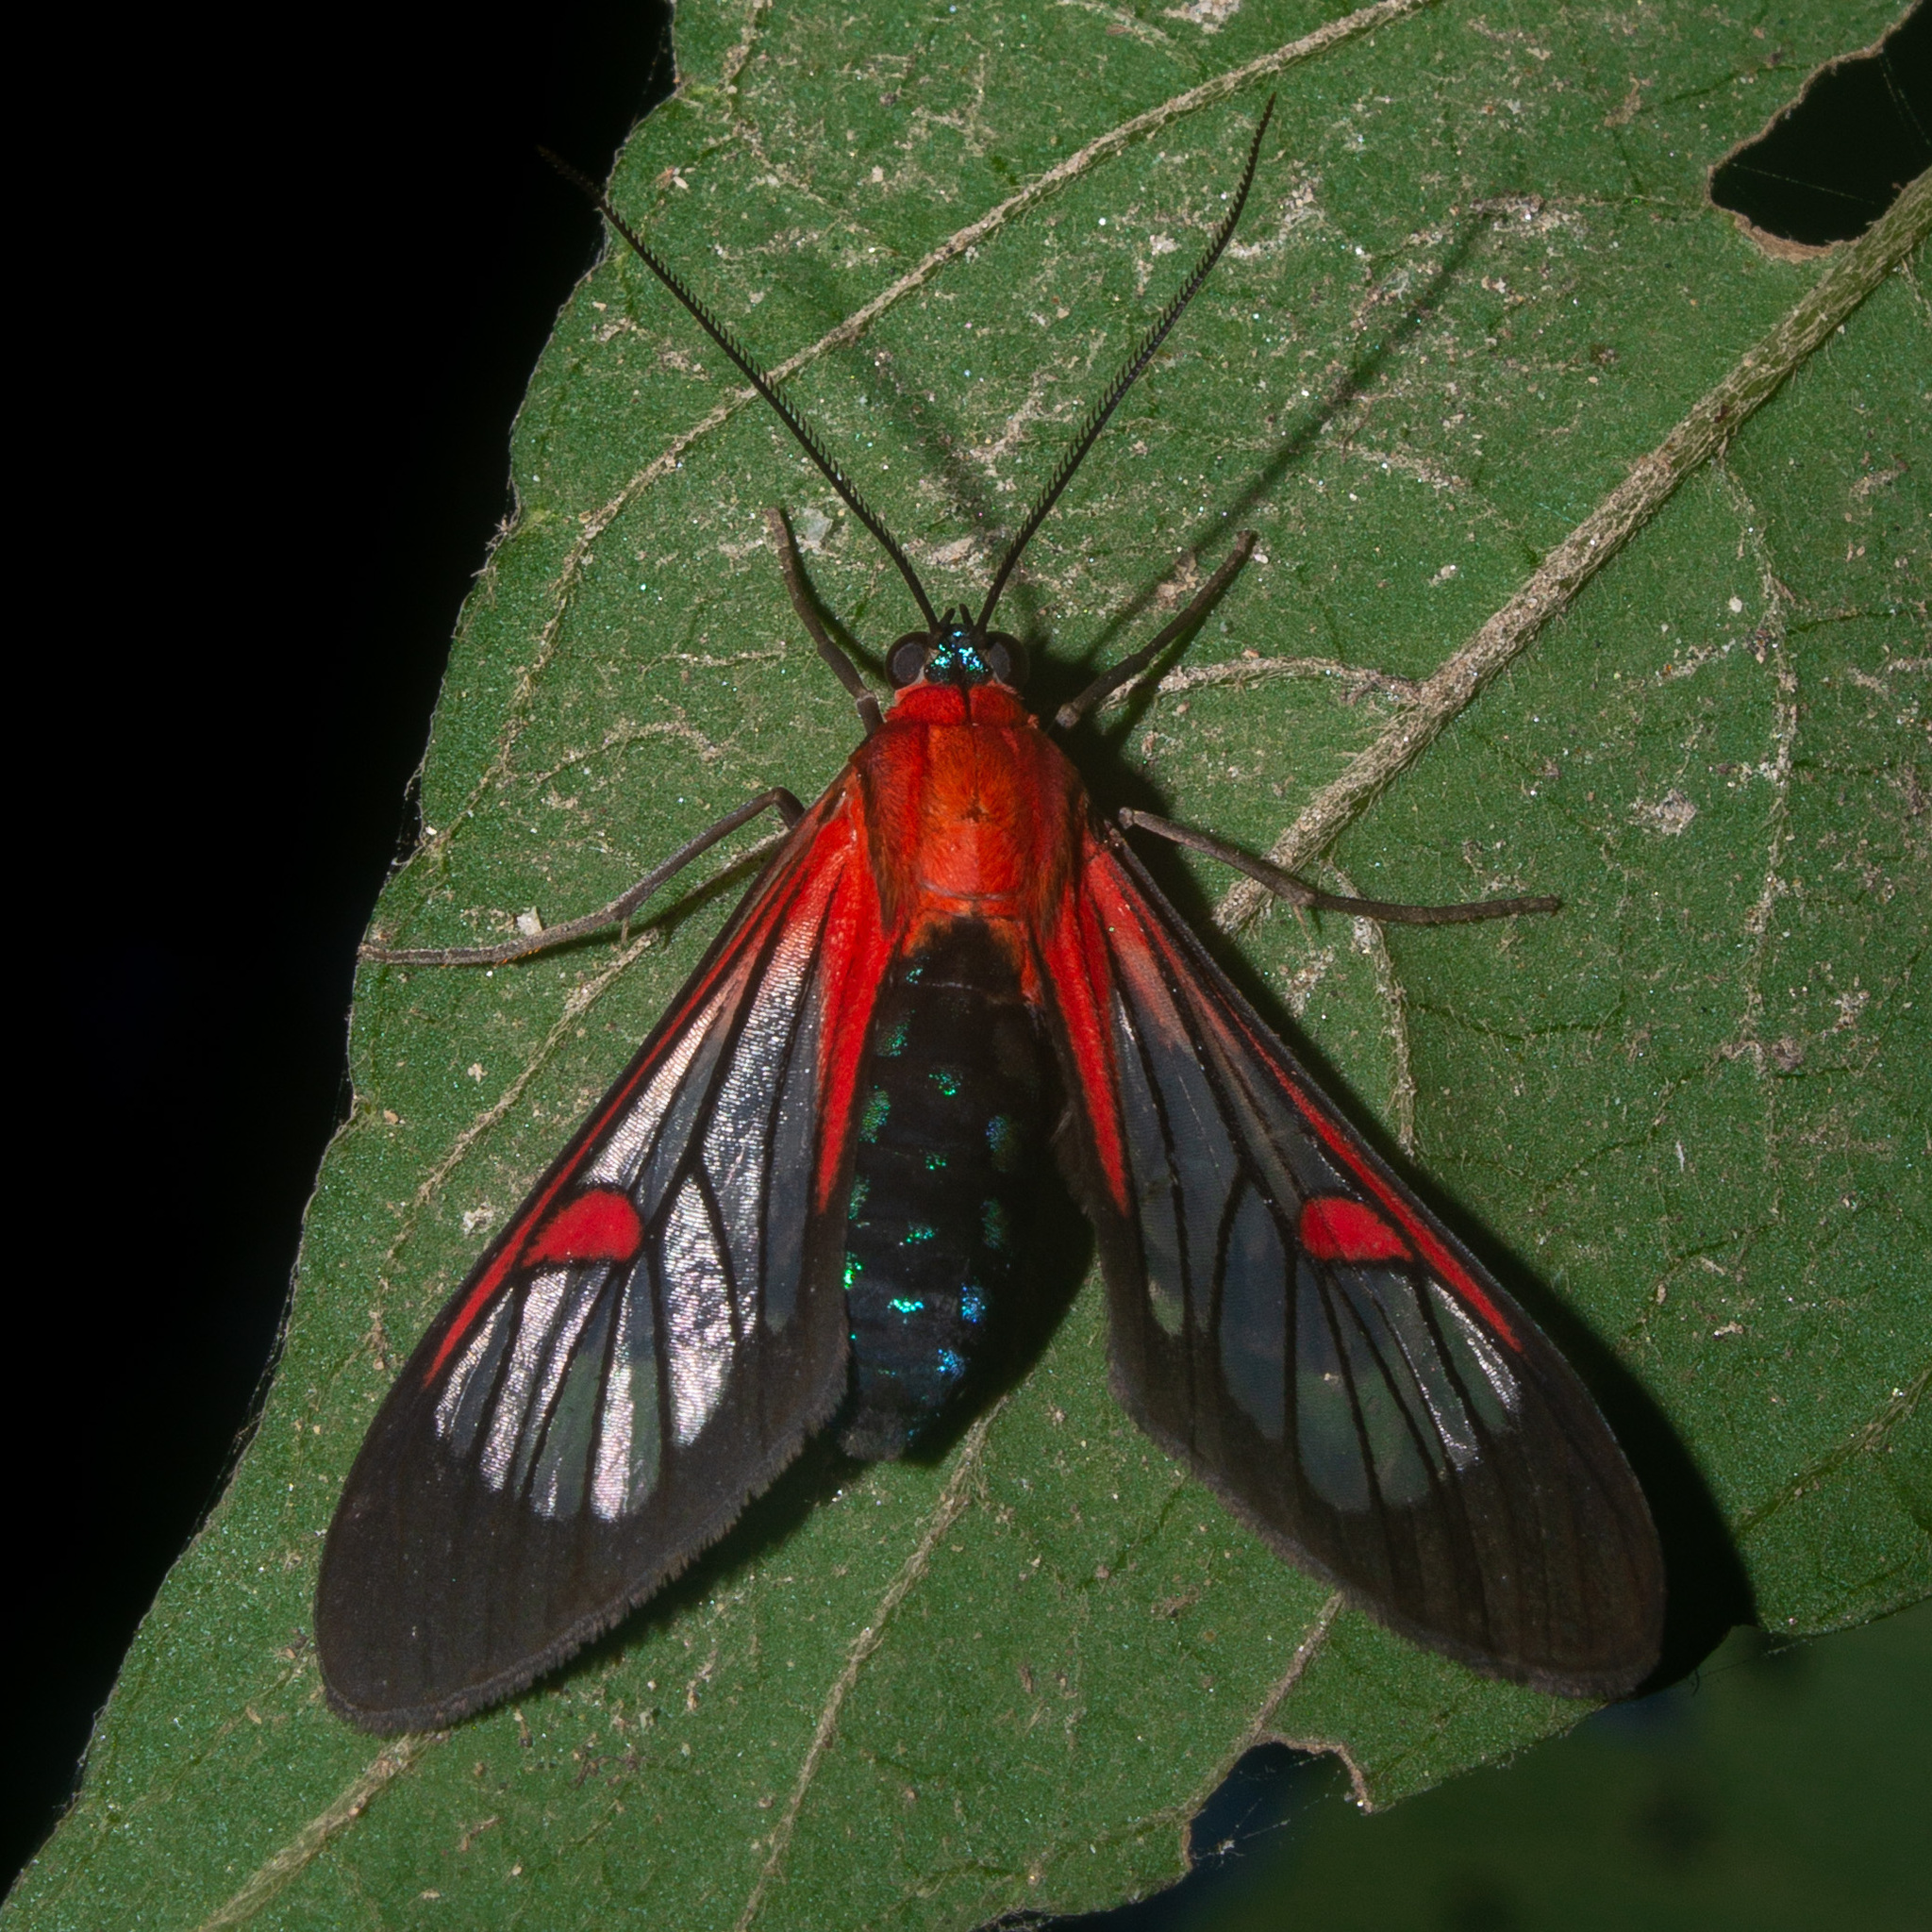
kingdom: Animalia
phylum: Arthropoda
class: Insecta
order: Lepidoptera
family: Erebidae
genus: Lepidoneiva
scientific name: Lepidoneiva teuthras
